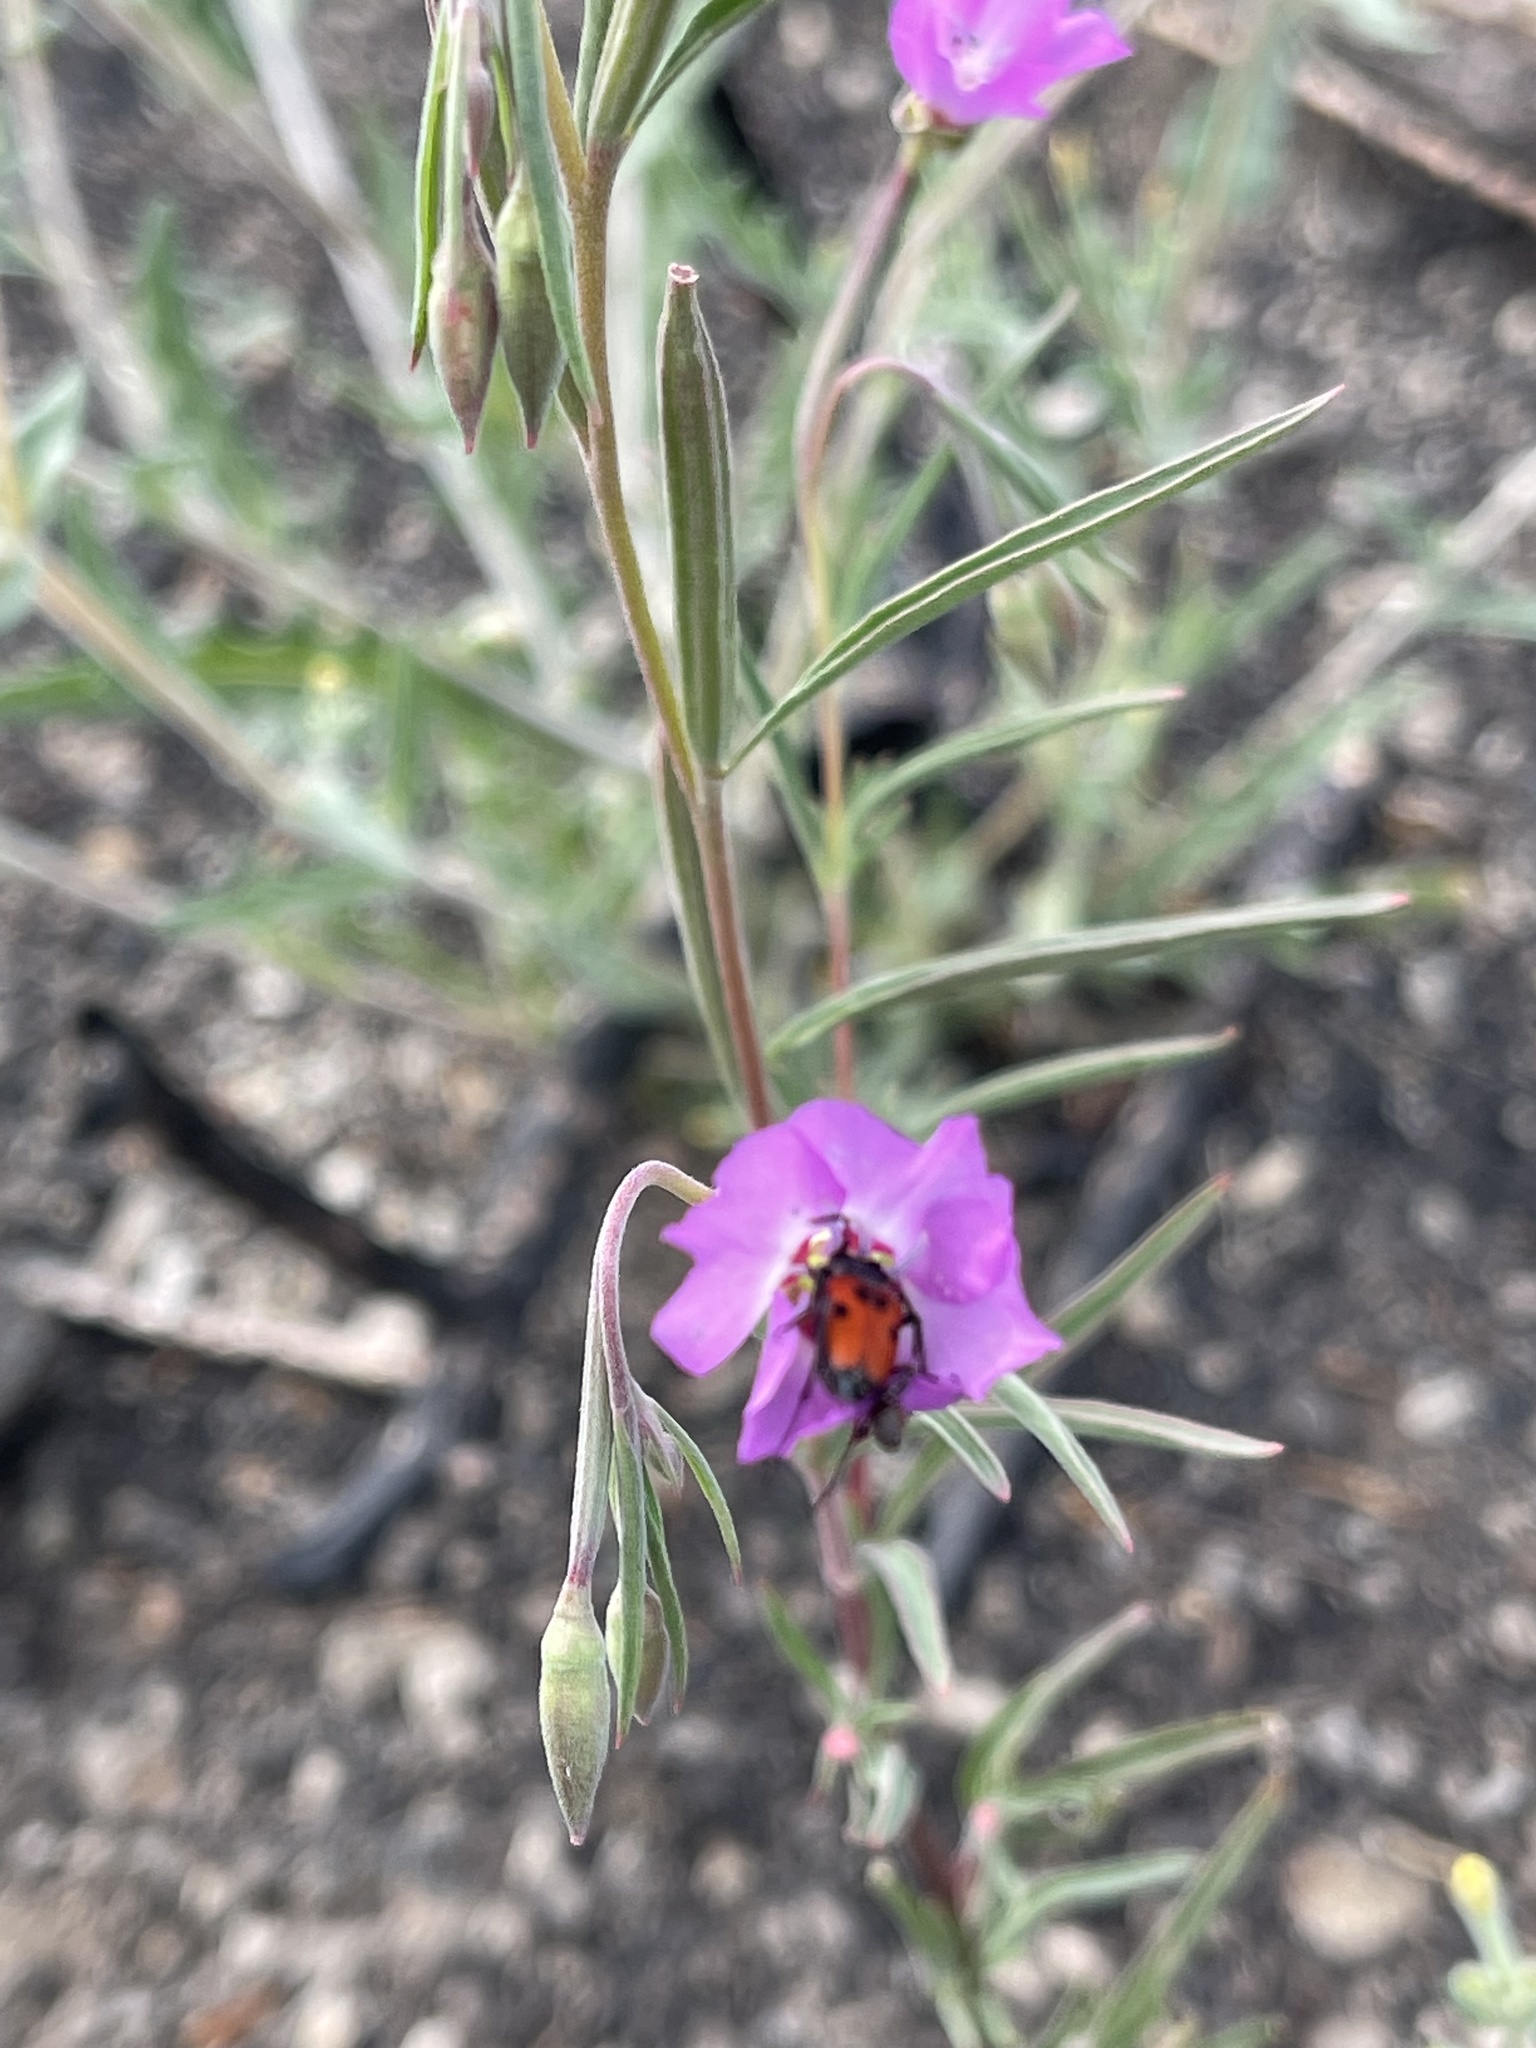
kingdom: Animalia
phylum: Arthropoda
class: Insecta
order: Coleoptera
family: Cerambycidae
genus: Anastrangalia
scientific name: Anastrangalia laetifica
